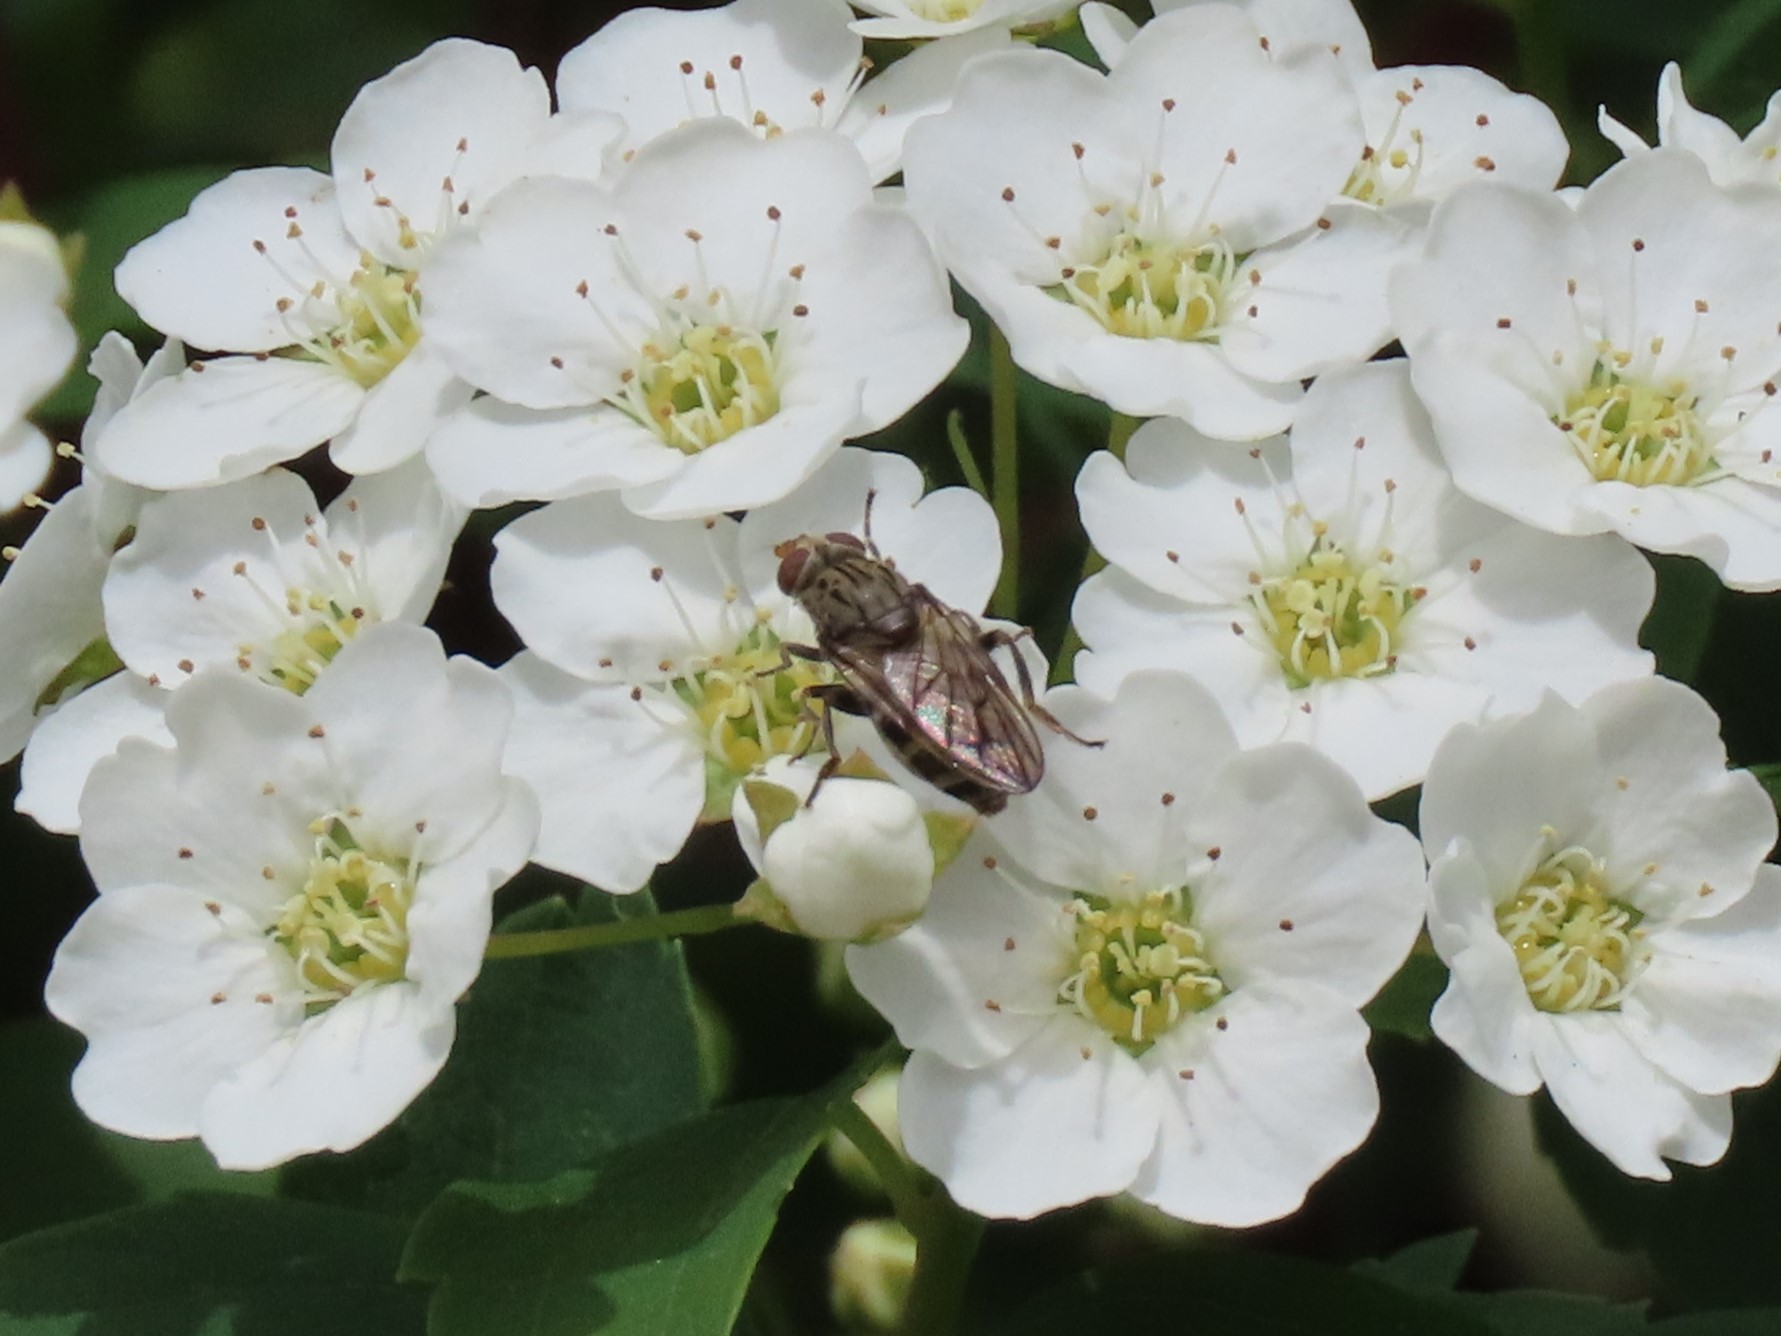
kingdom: Animalia
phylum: Arthropoda
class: Insecta
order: Diptera
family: Syrphidae
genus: Brachyopa
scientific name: Brachyopa diversa
